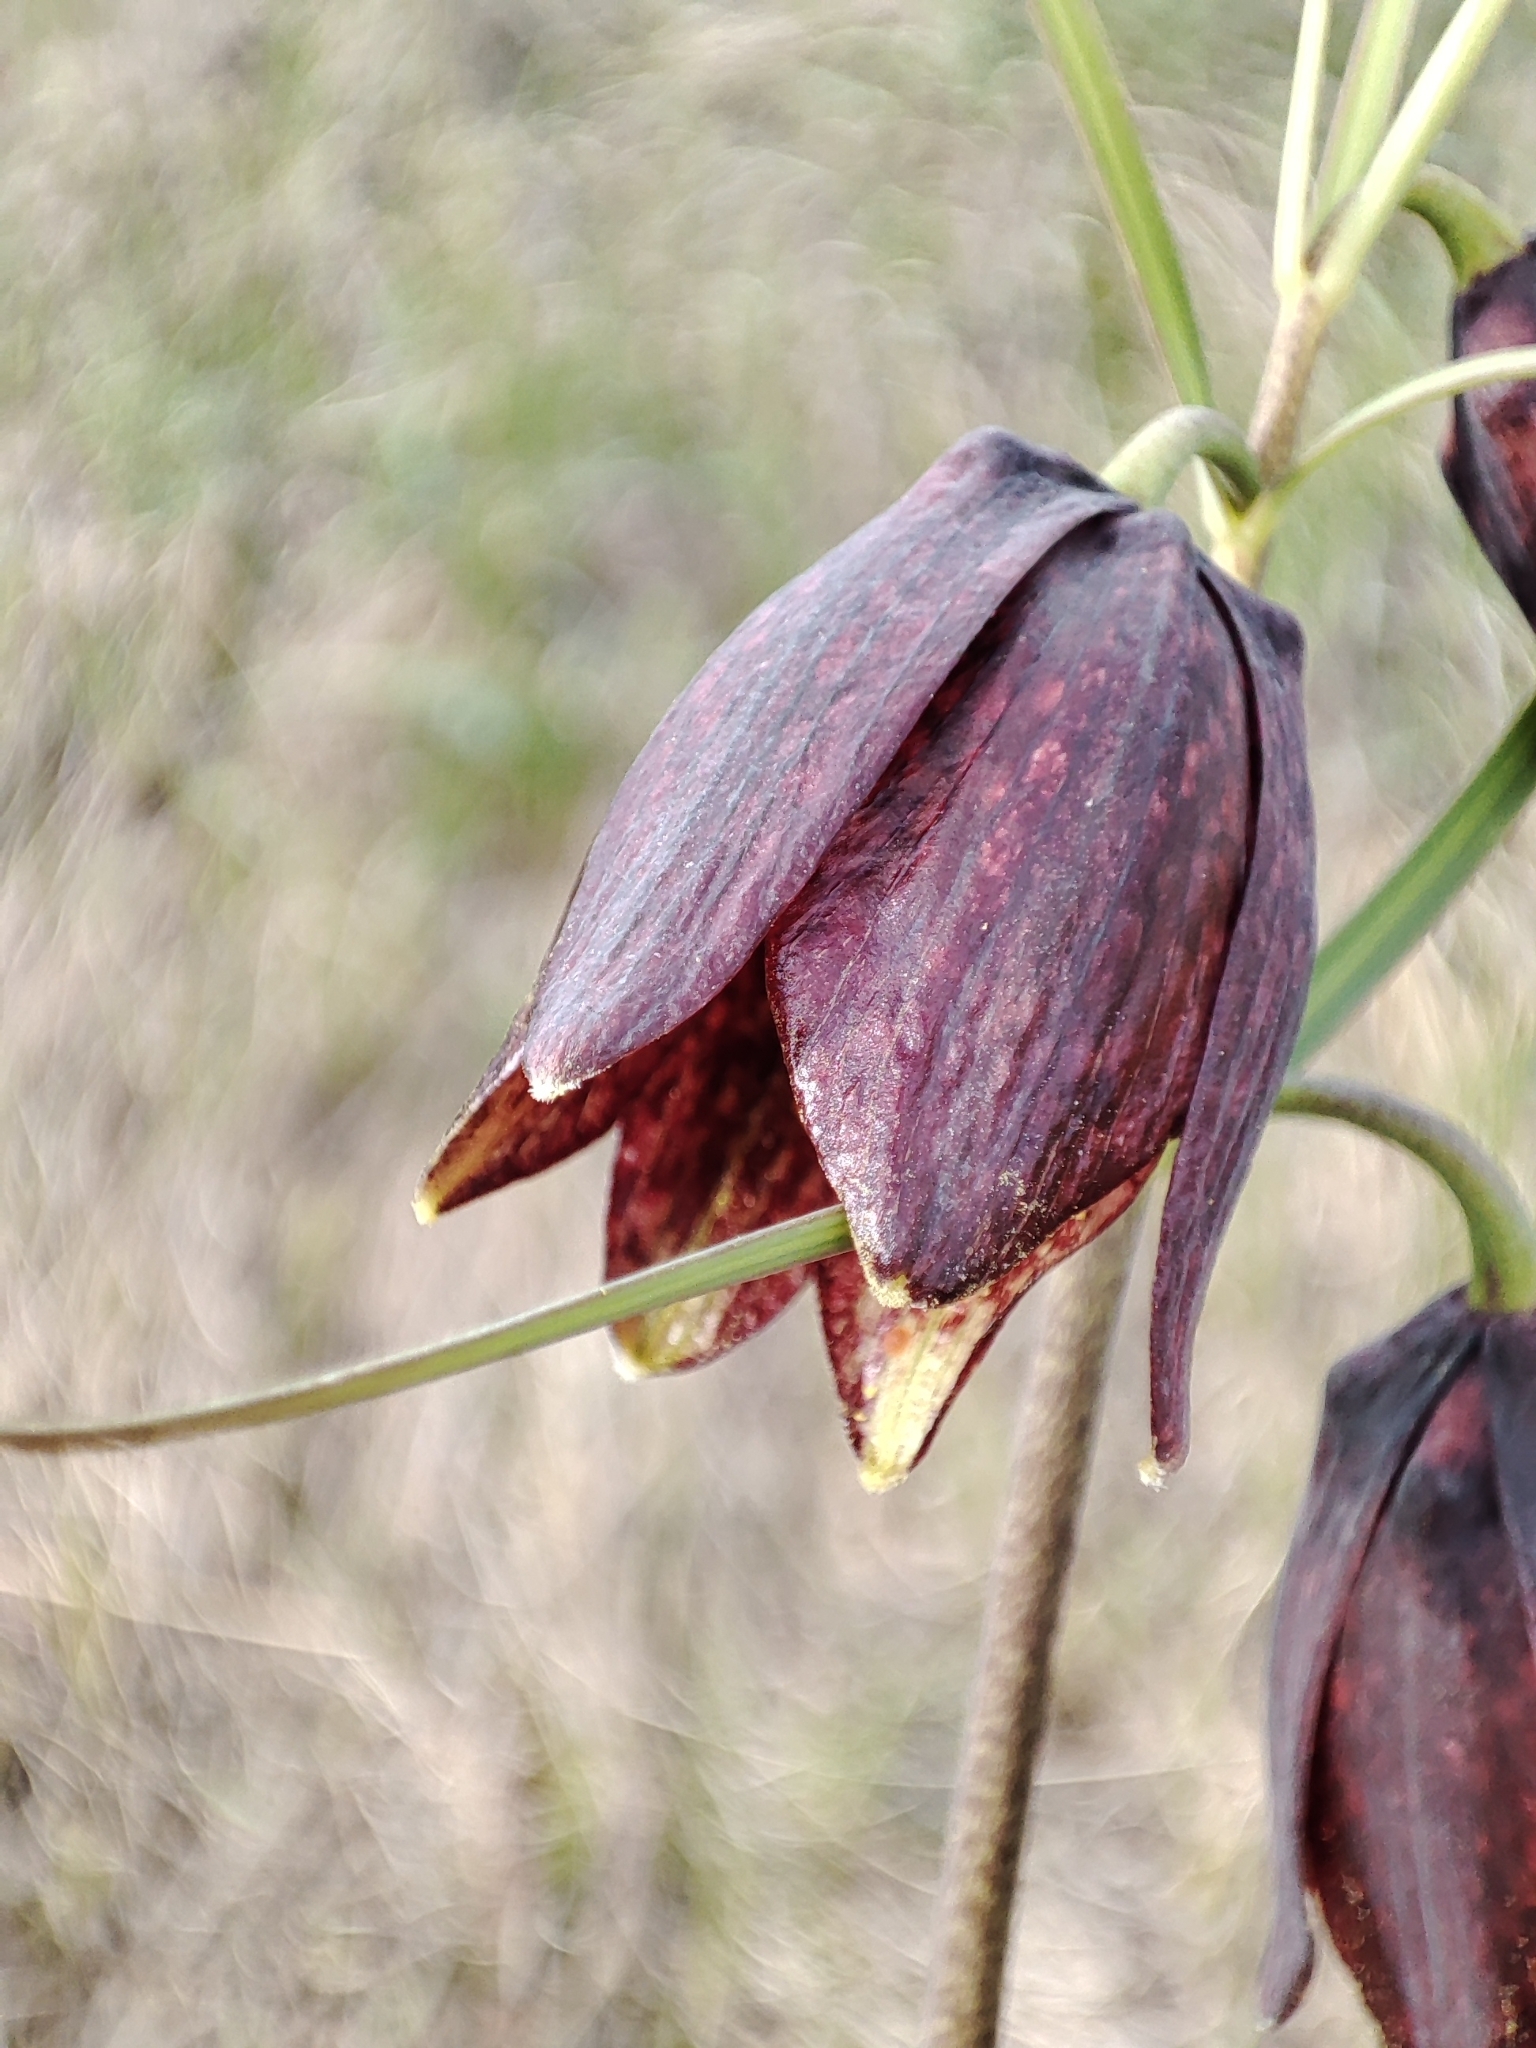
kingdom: Plantae
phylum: Tracheophyta
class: Liliopsida
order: Liliales
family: Liliaceae
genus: Fritillaria
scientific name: Fritillaria ruthenica
